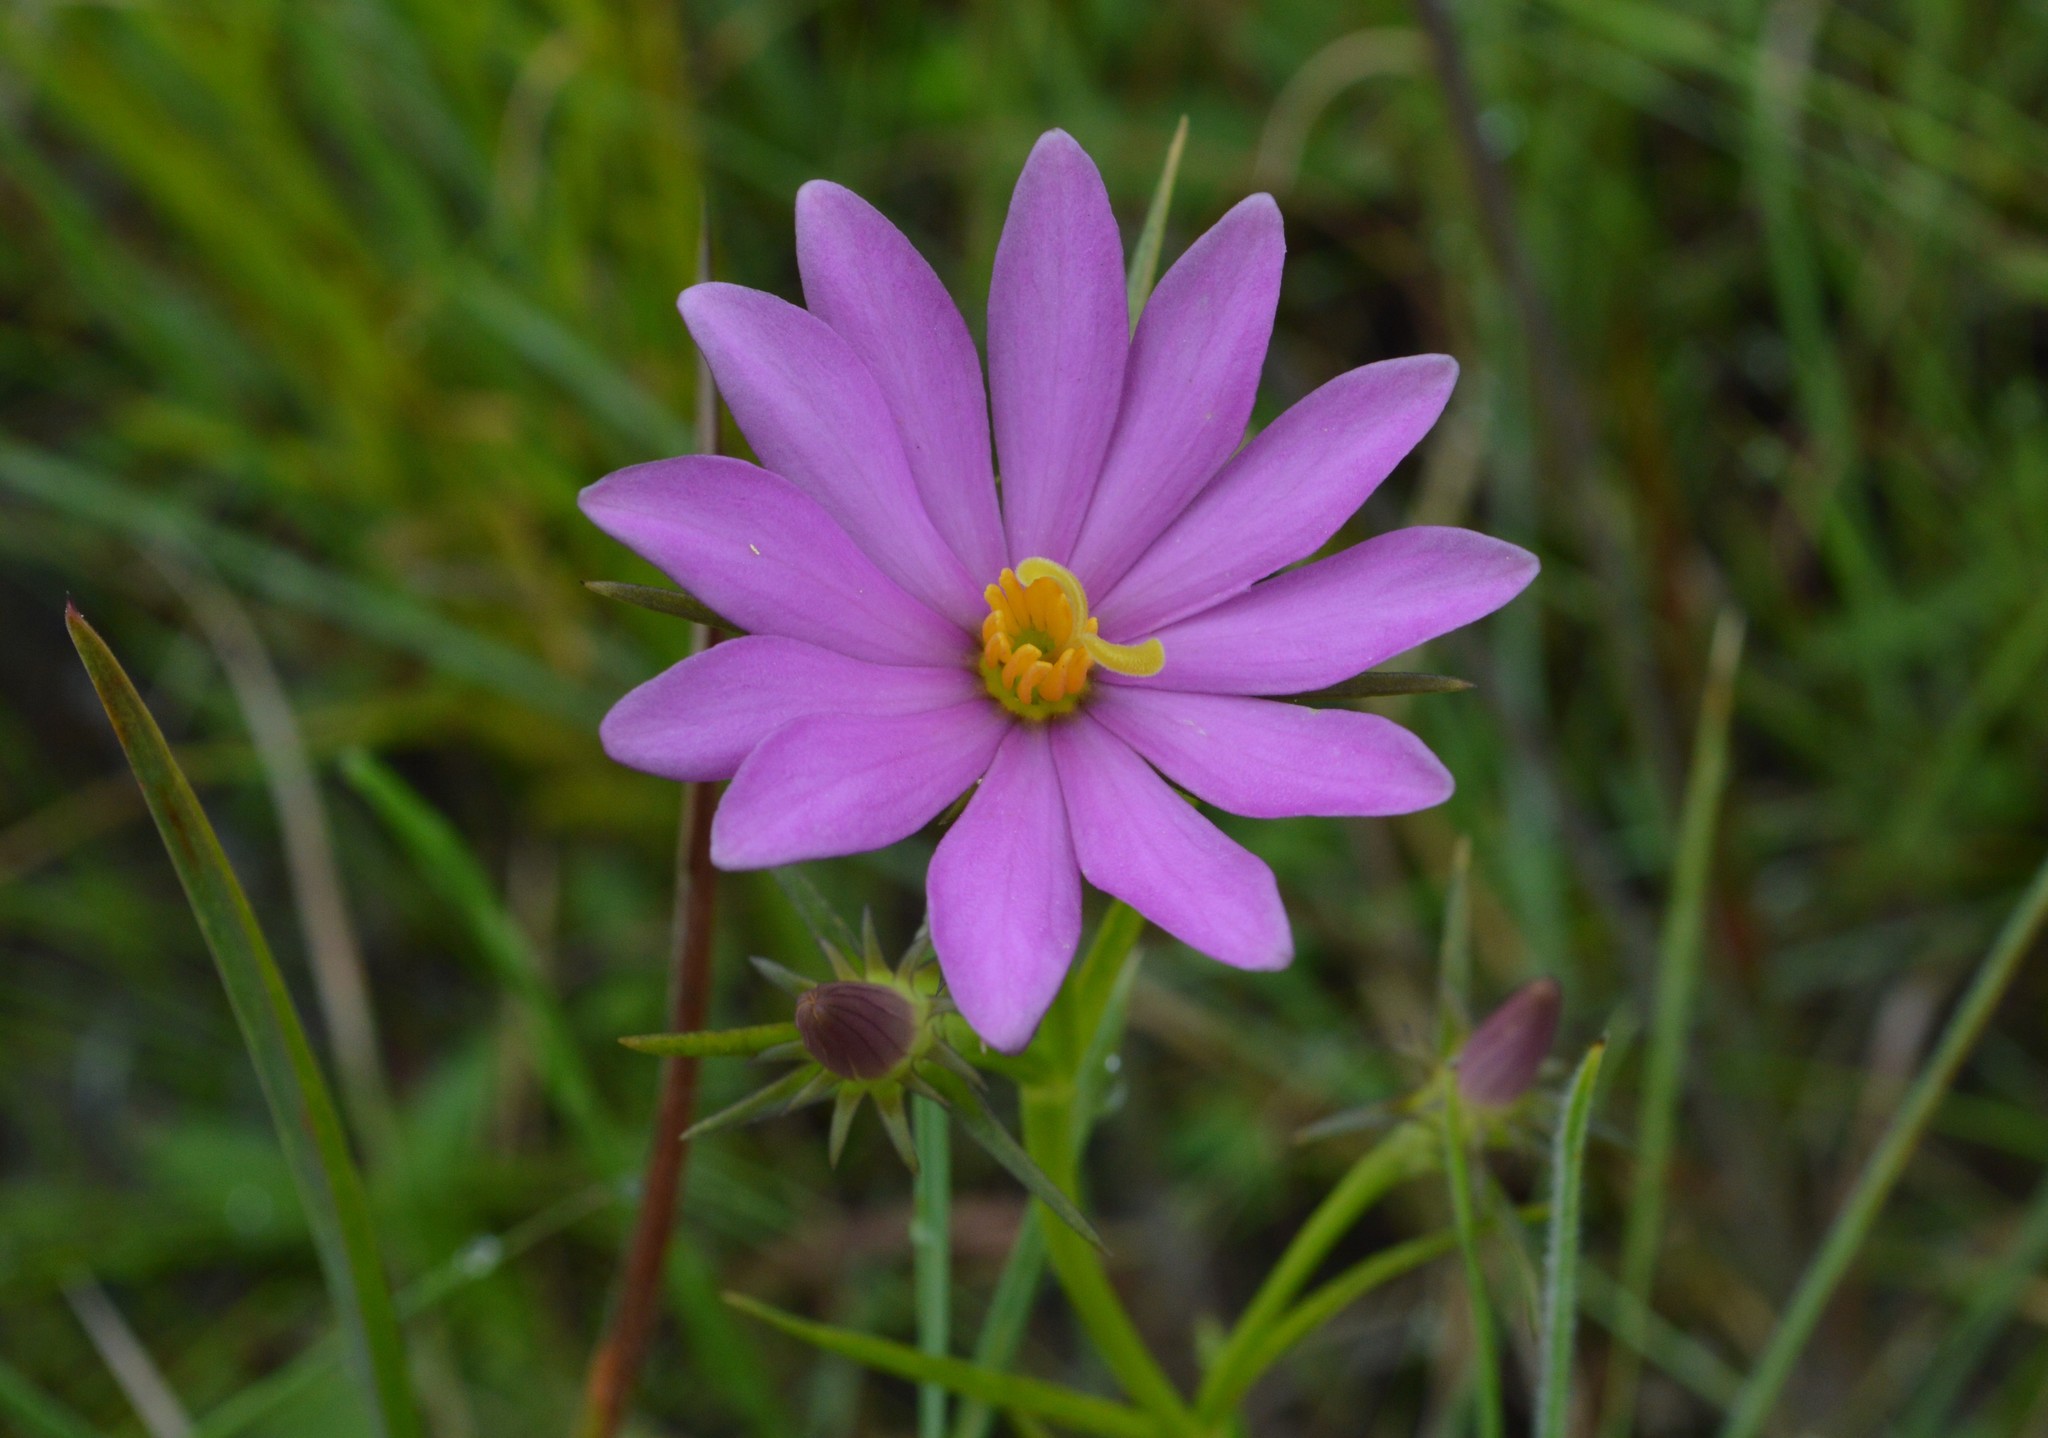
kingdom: Plantae
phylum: Tracheophyta
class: Magnoliopsida
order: Gentianales
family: Gentianaceae
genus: Sabatia
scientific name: Sabatia gentianoides
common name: Pinewoods rose-gentian
